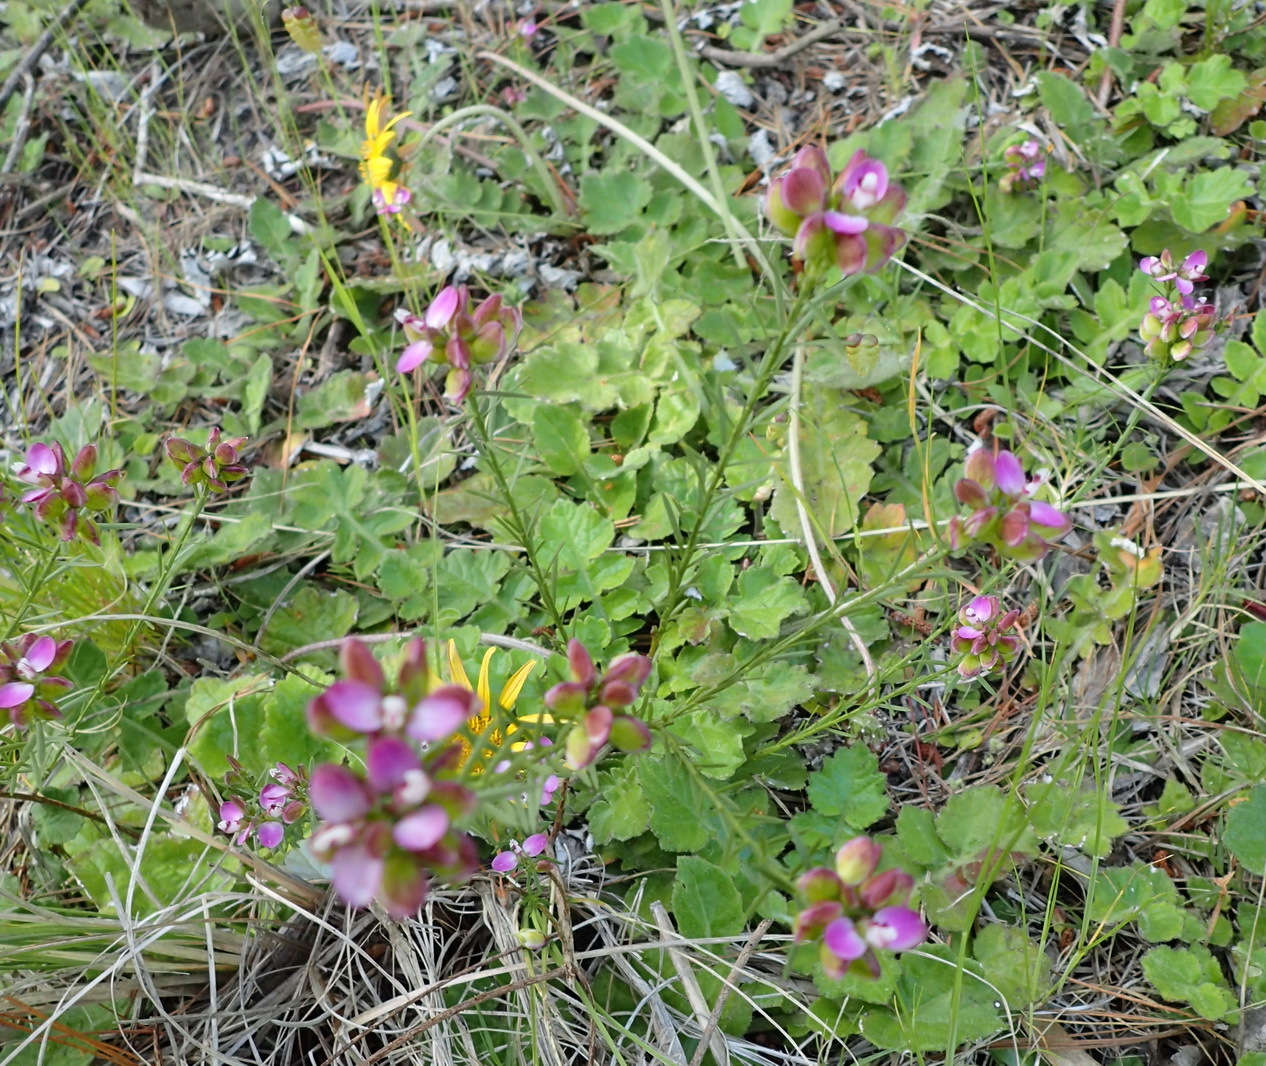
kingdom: Plantae
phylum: Tracheophyta
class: Magnoliopsida
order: Fabales
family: Polygalaceae
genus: Polygala
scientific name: Polygala ericifolia
